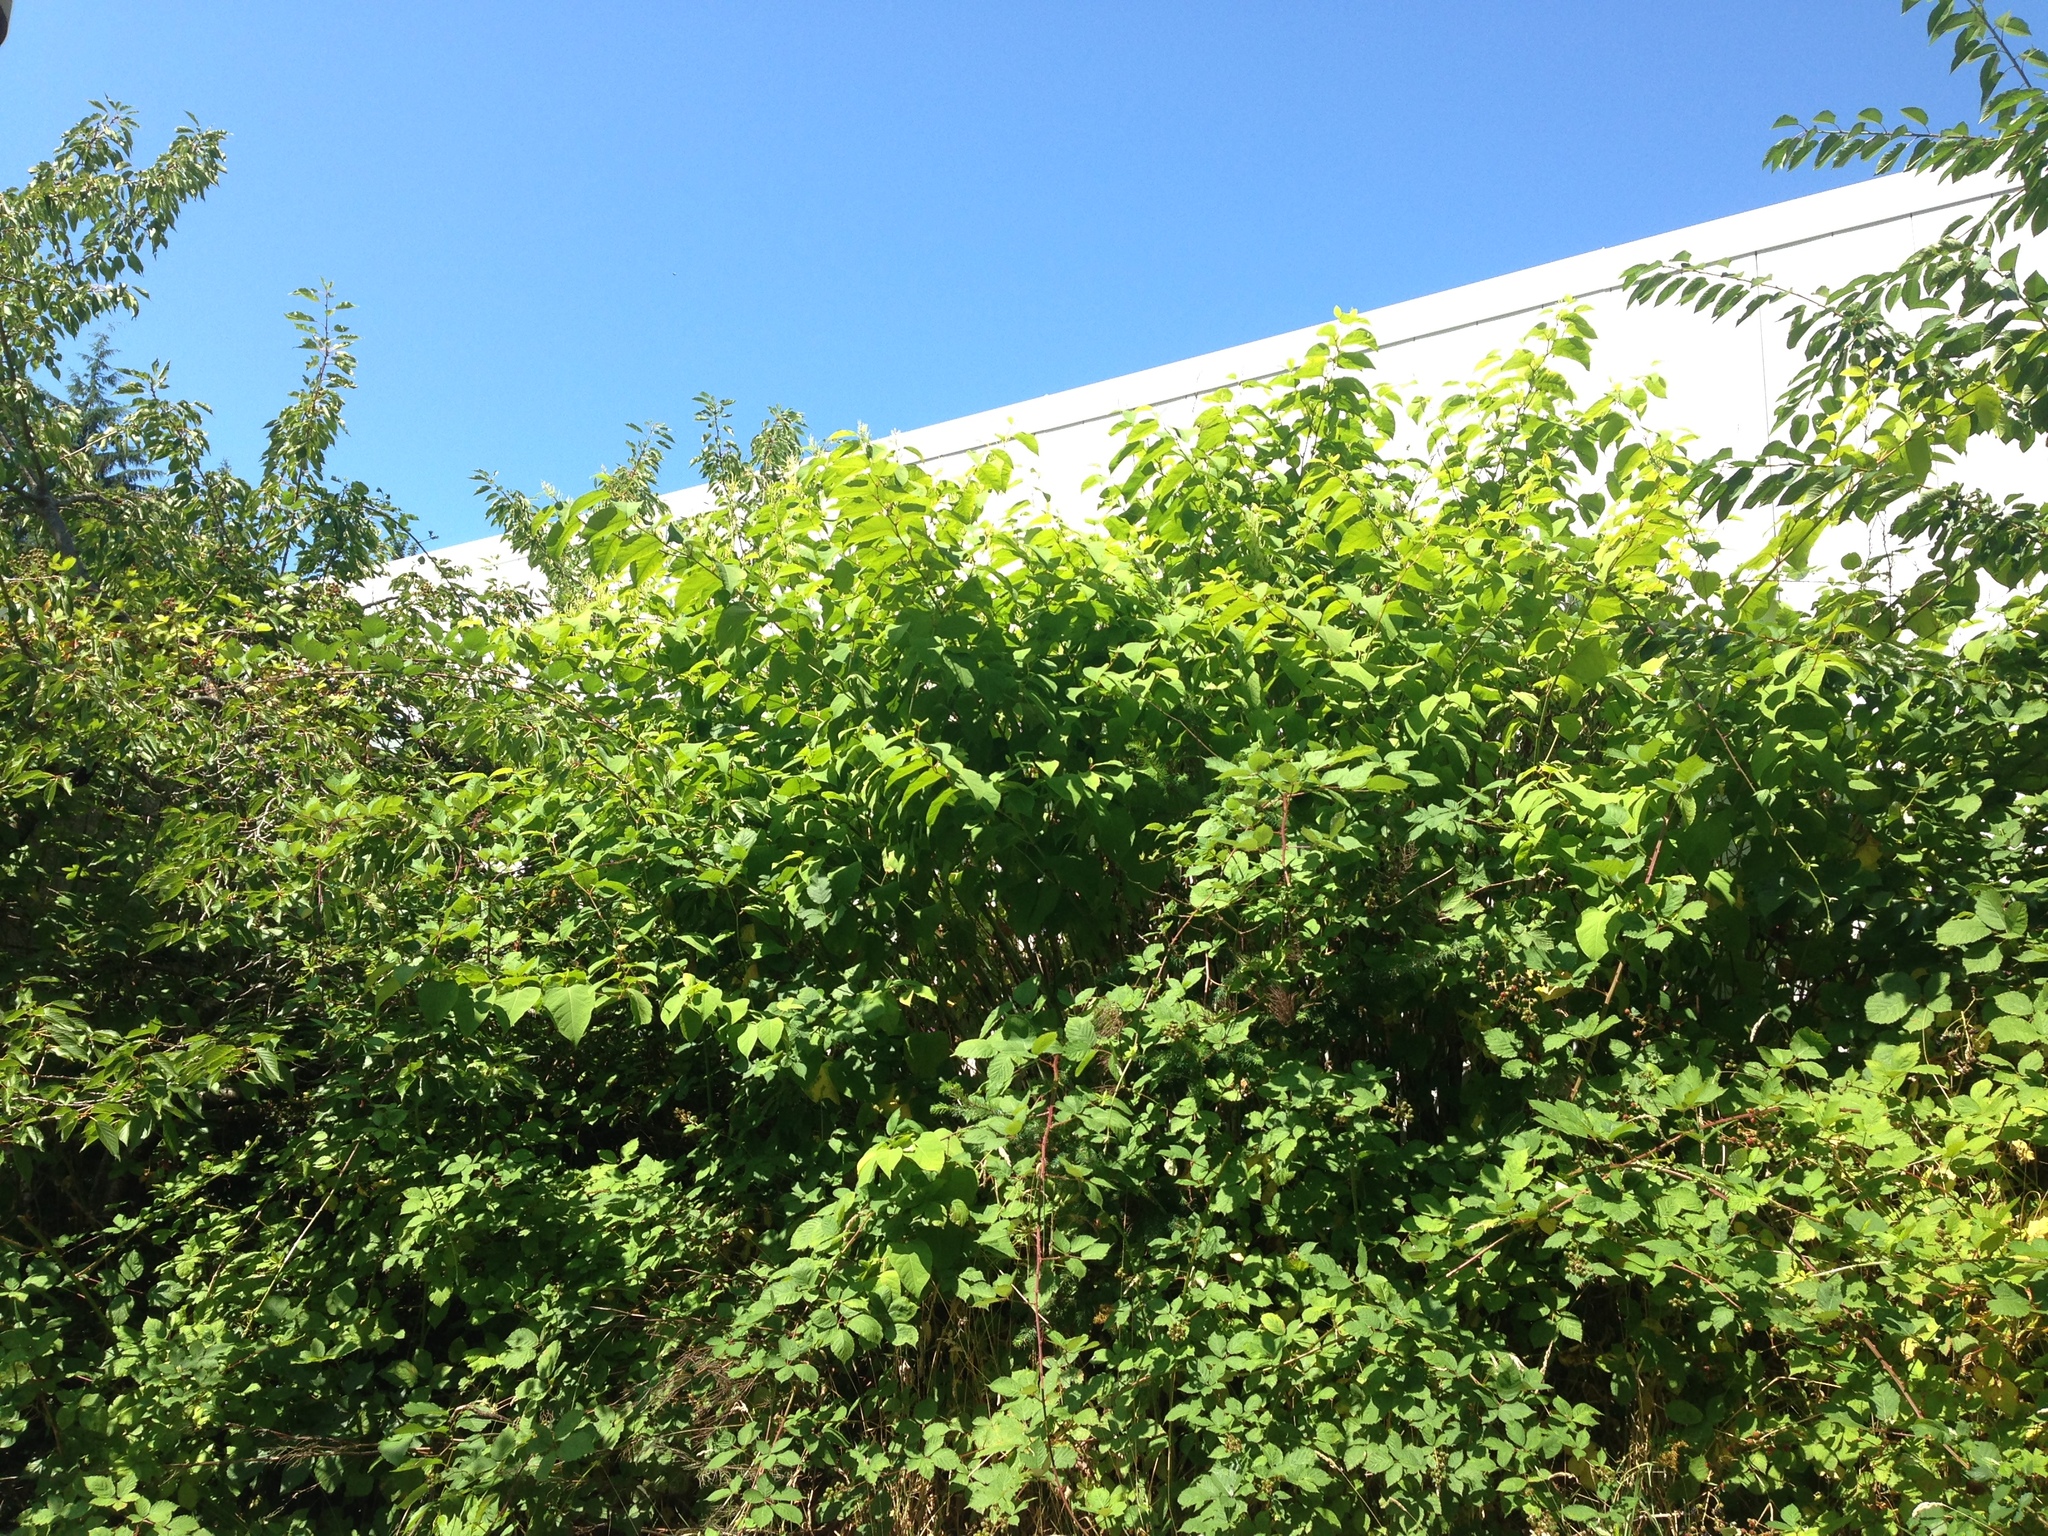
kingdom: Plantae
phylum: Tracheophyta
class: Magnoliopsida
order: Caryophyllales
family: Polygonaceae
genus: Reynoutria
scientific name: Reynoutria japonica
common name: Japanese knotweed
